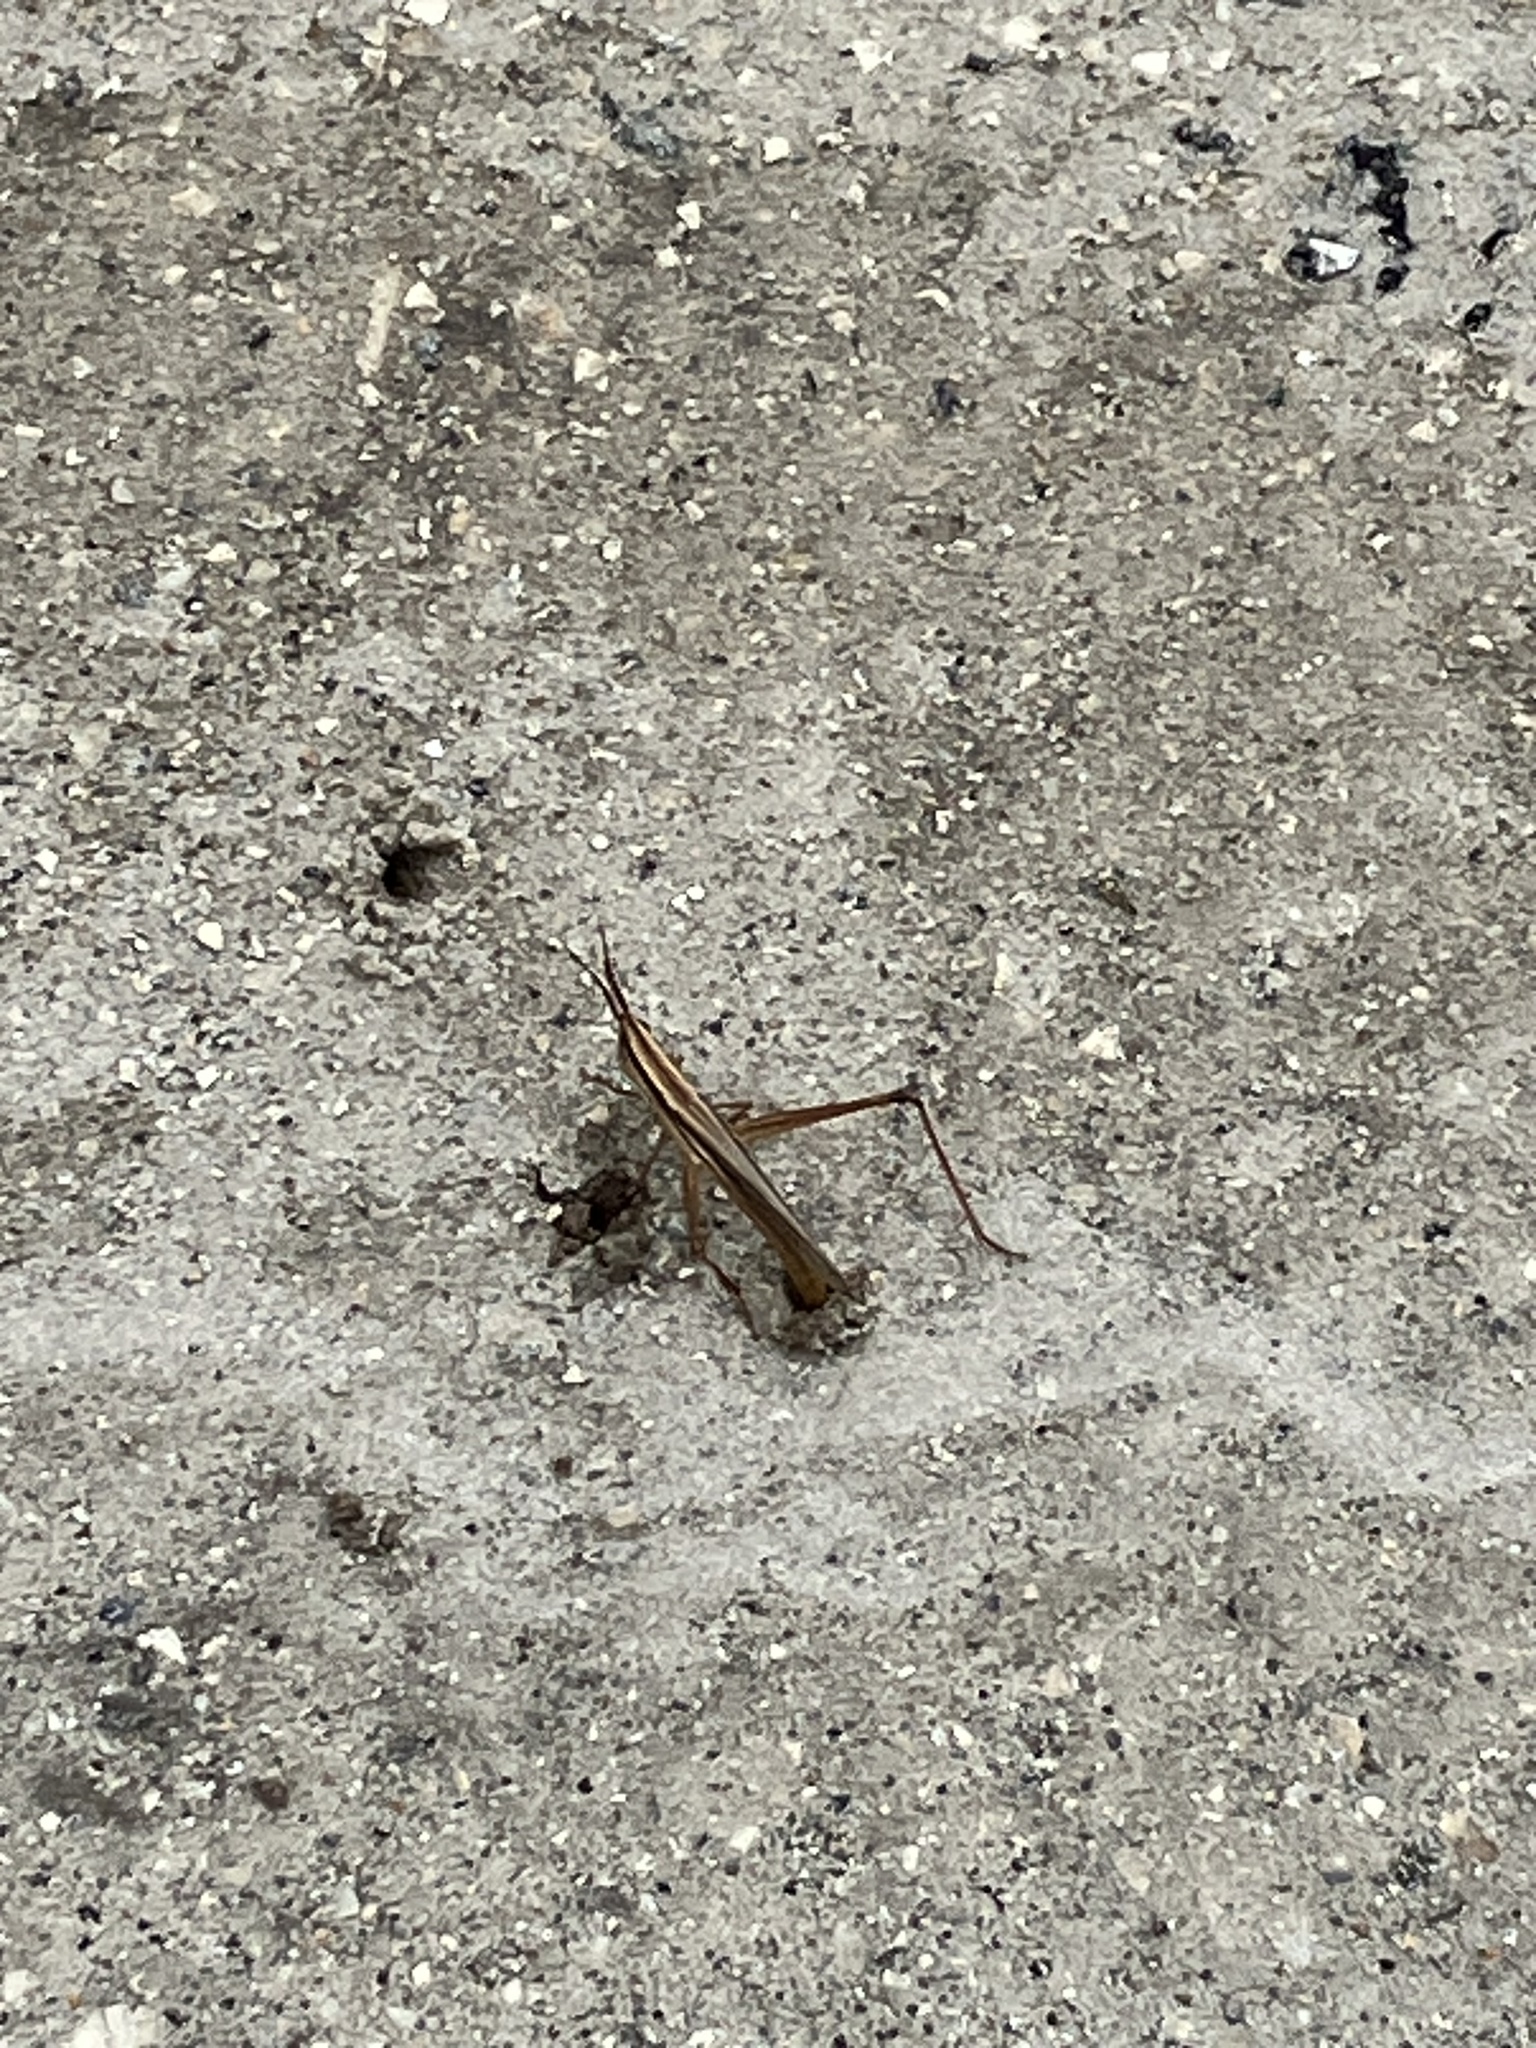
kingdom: Animalia
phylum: Arthropoda
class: Insecta
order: Orthoptera
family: Acrididae
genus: Mermiria
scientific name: Mermiria intertexta
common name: Eastern mermiria grasshopper
